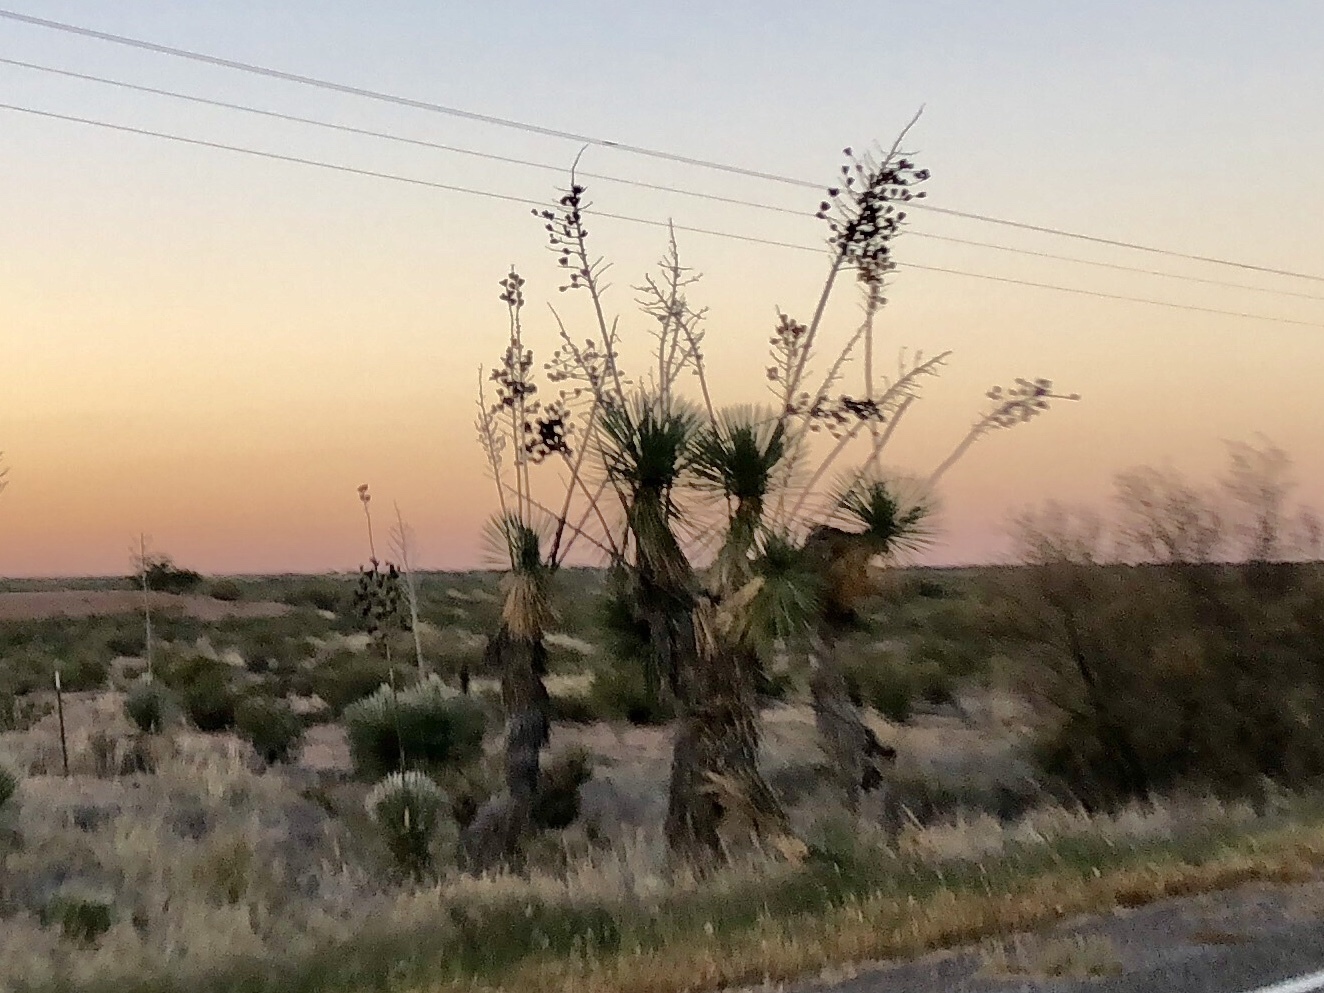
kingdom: Plantae
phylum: Tracheophyta
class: Liliopsida
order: Asparagales
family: Asparagaceae
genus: Yucca
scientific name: Yucca elata
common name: Palmella
